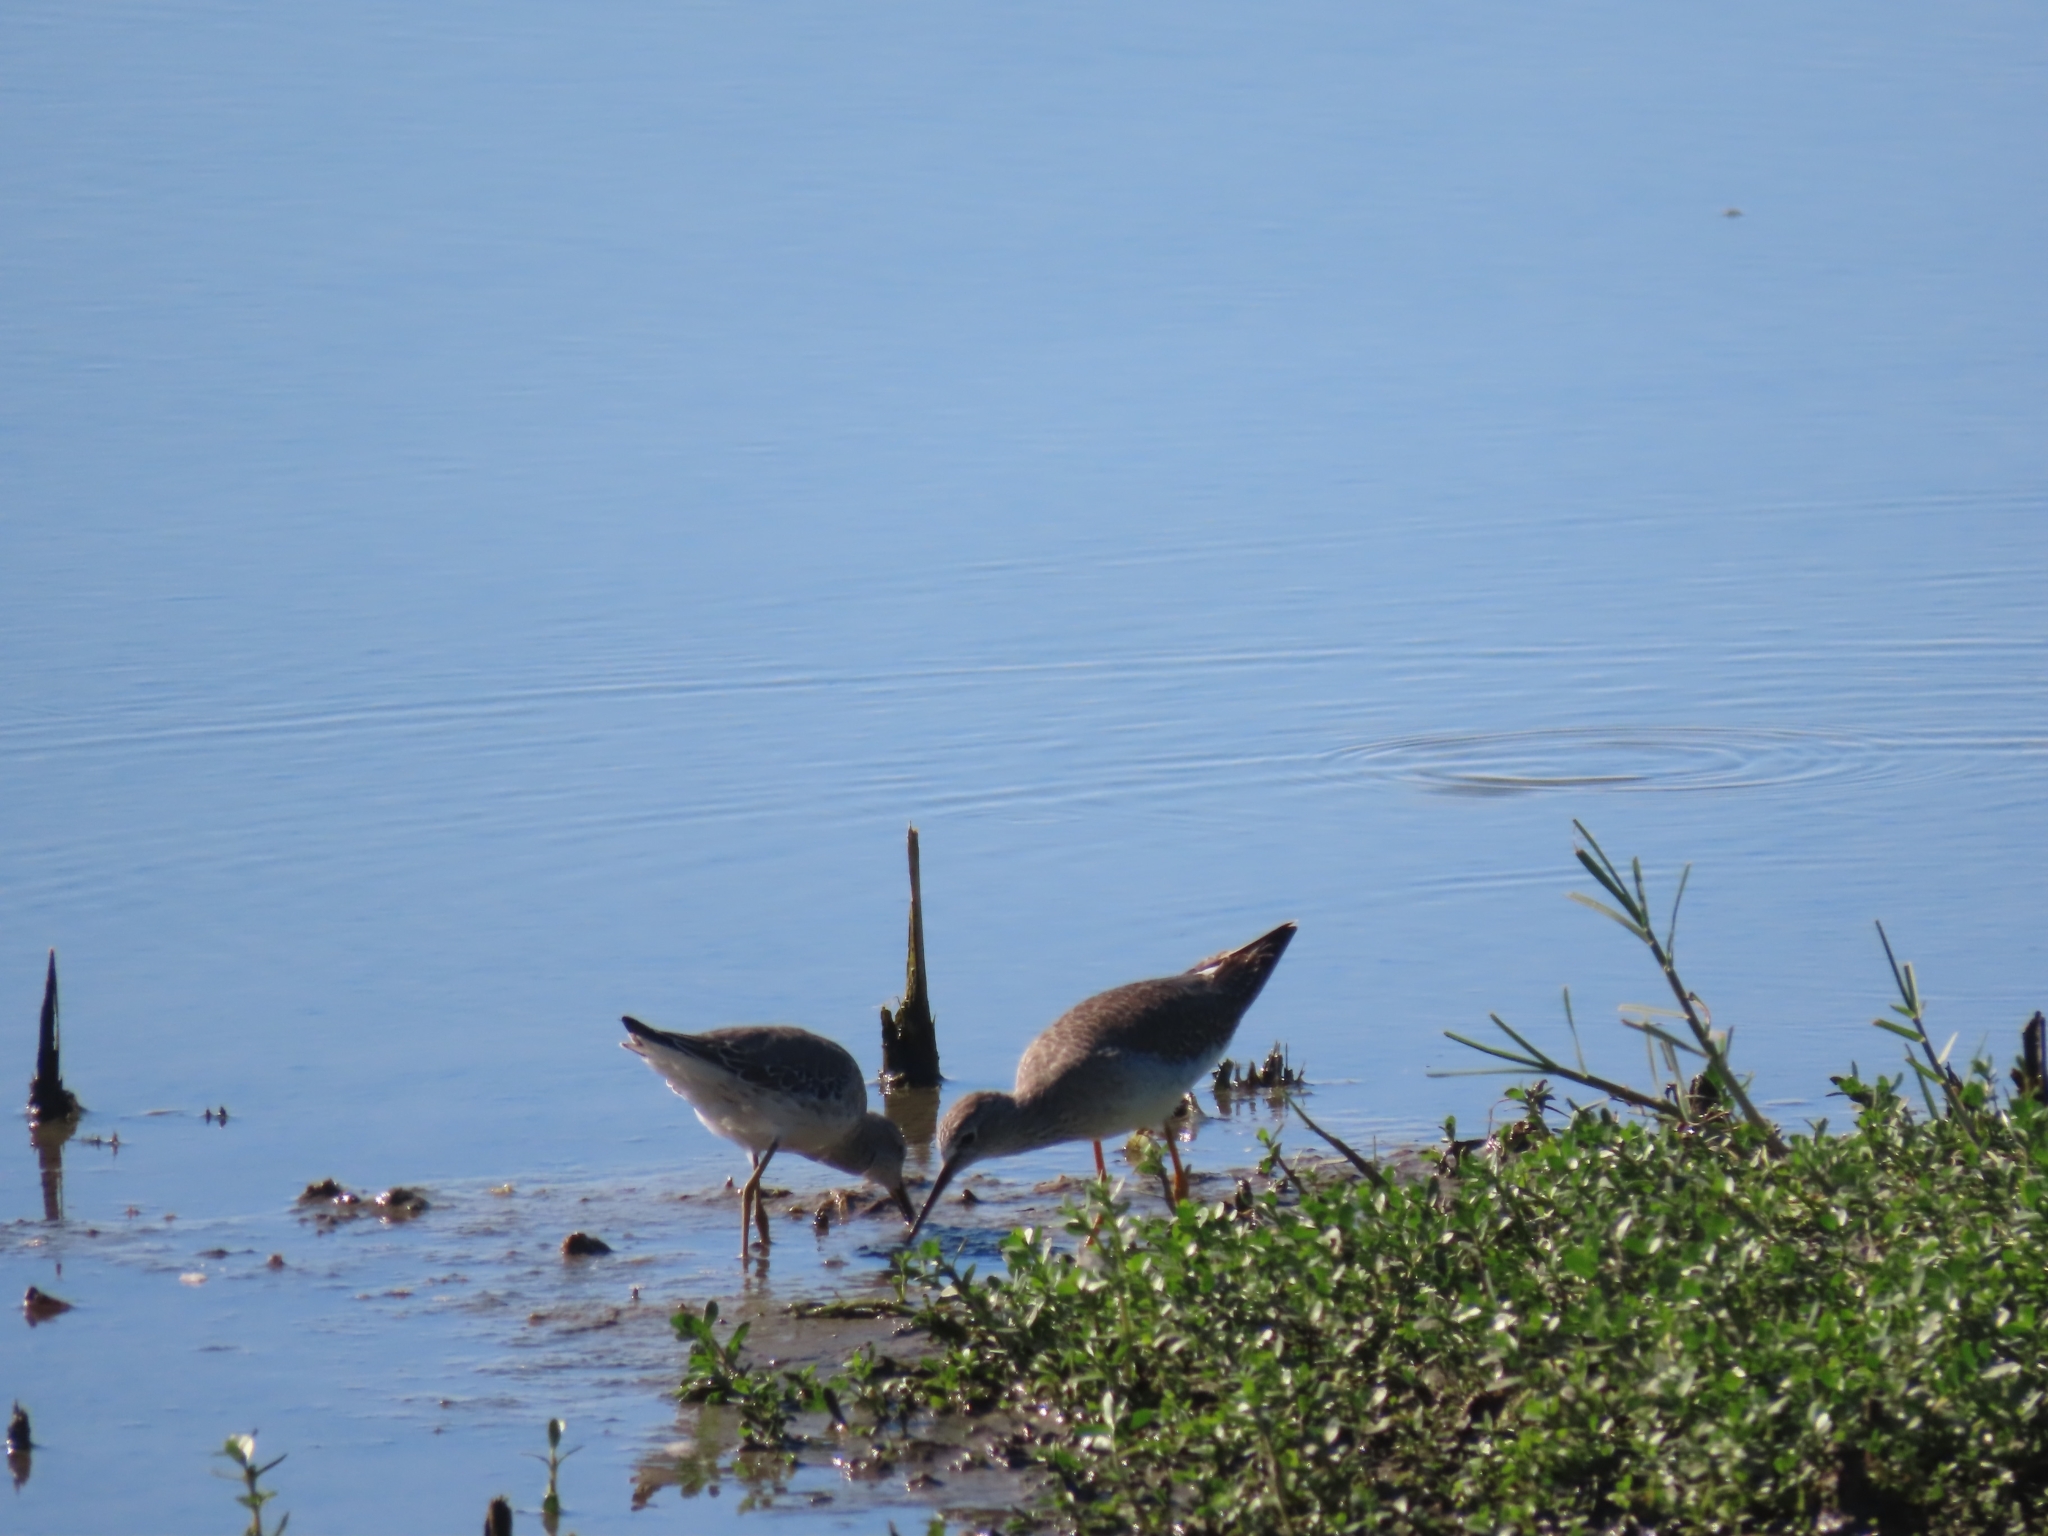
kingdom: Animalia
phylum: Chordata
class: Aves
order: Charadriiformes
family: Scolopacidae
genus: Tringa
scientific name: Tringa flavipes
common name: Lesser yellowlegs
